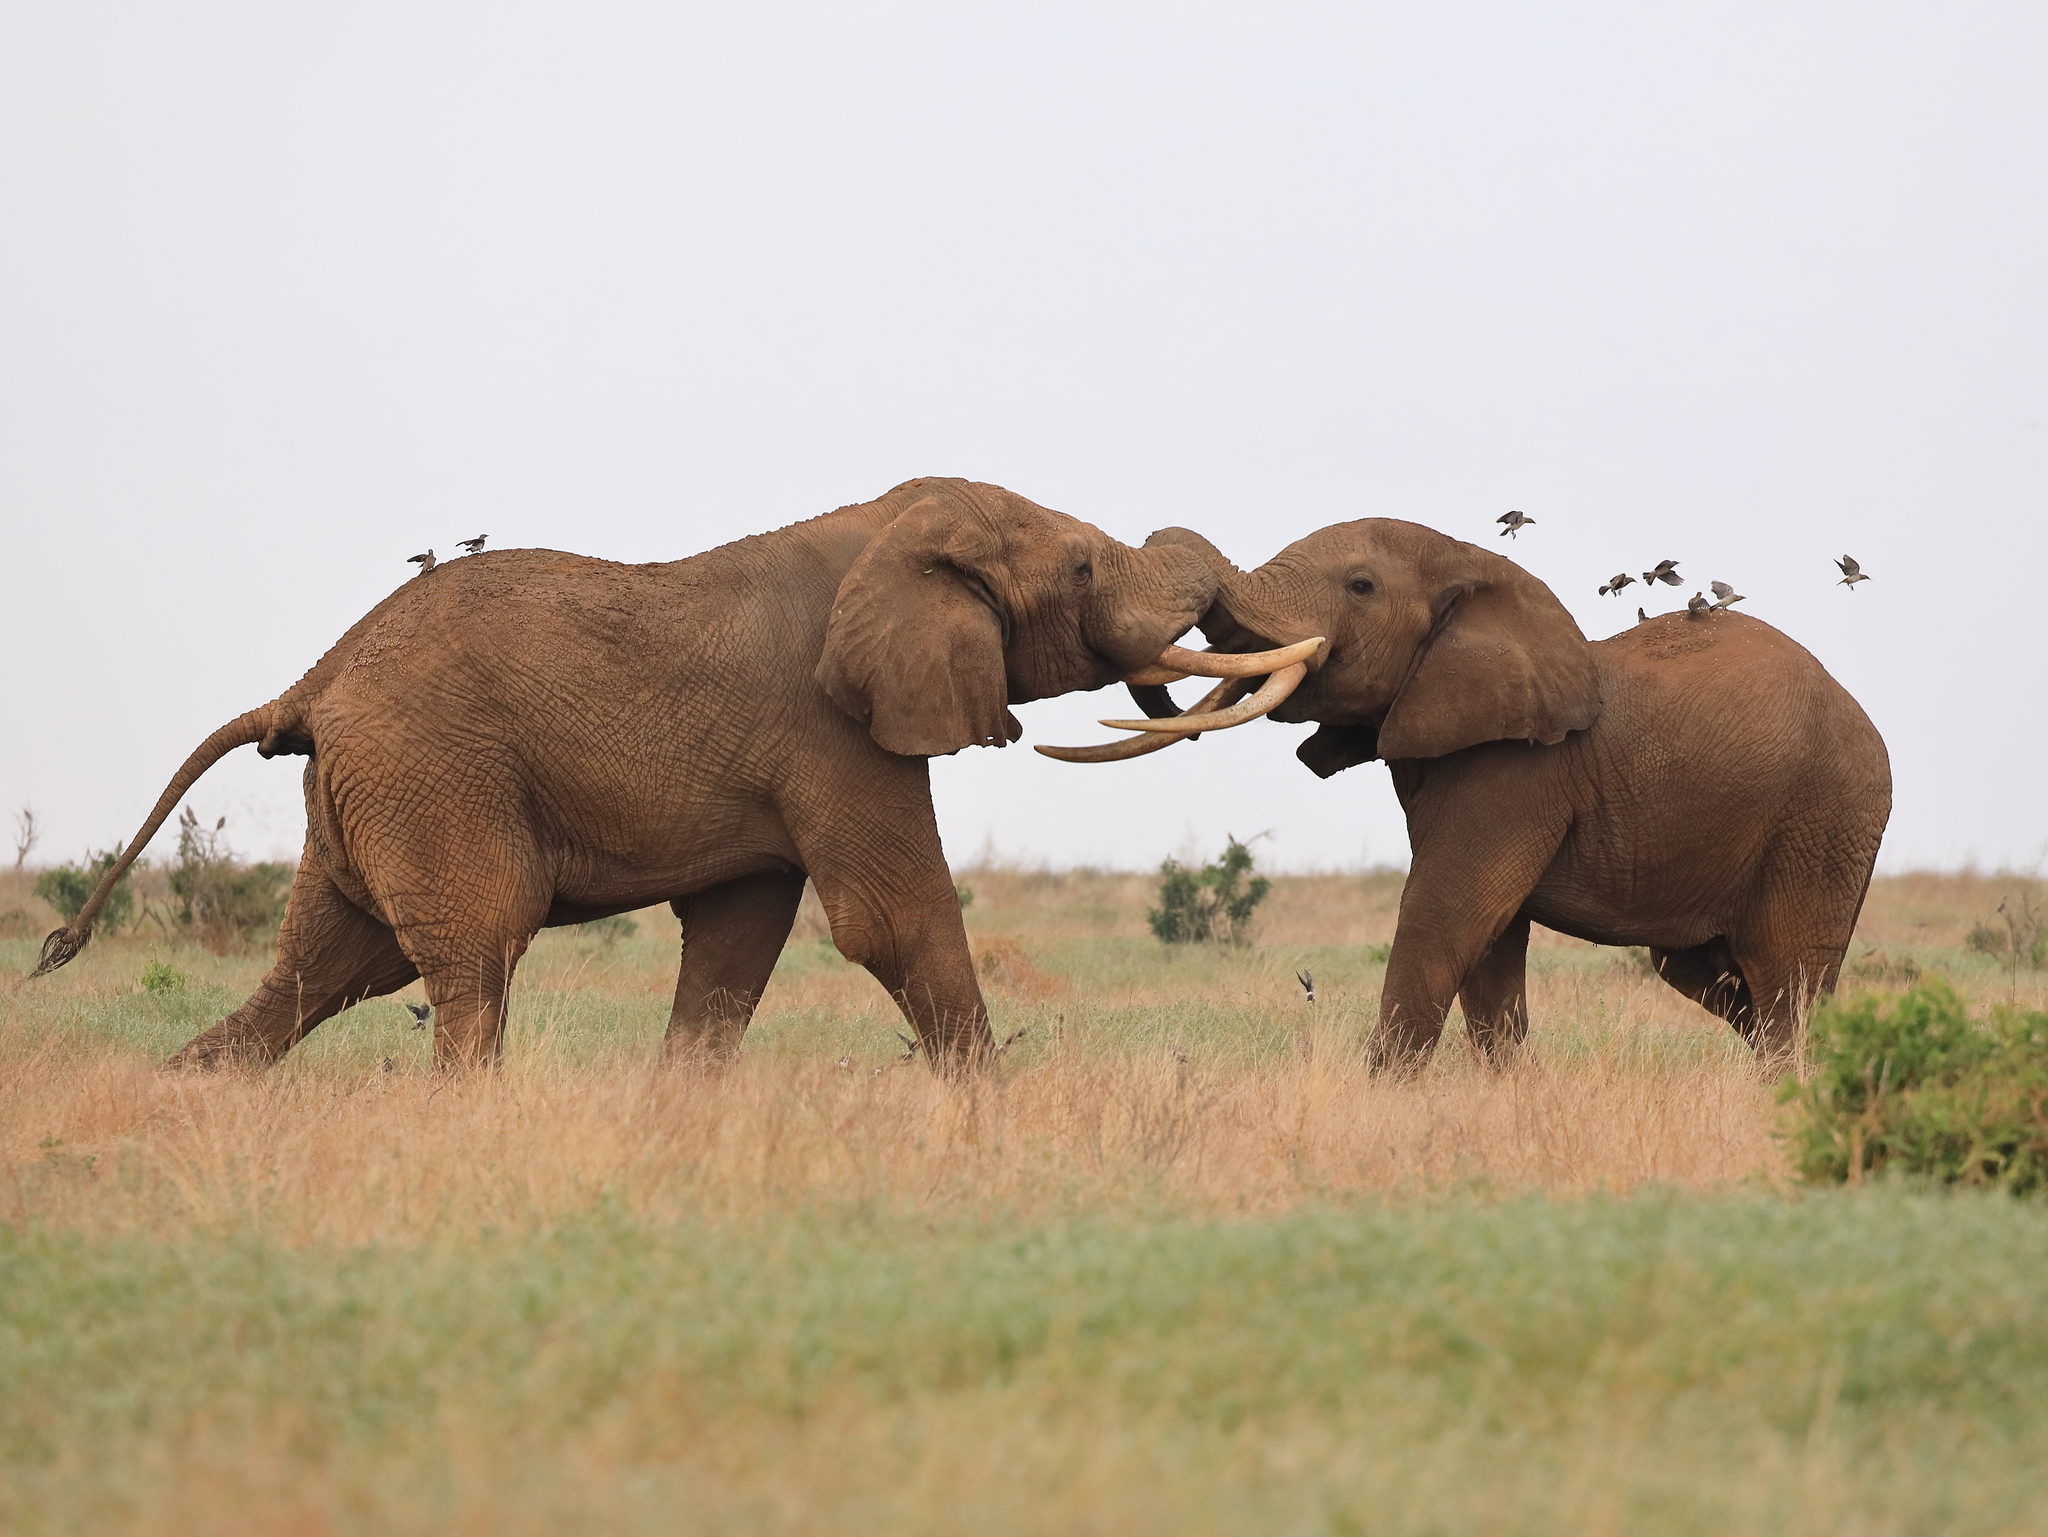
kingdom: Animalia
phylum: Chordata
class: Mammalia
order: Proboscidea
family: Elephantidae
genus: Loxodonta
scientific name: Loxodonta africana
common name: African elephant
